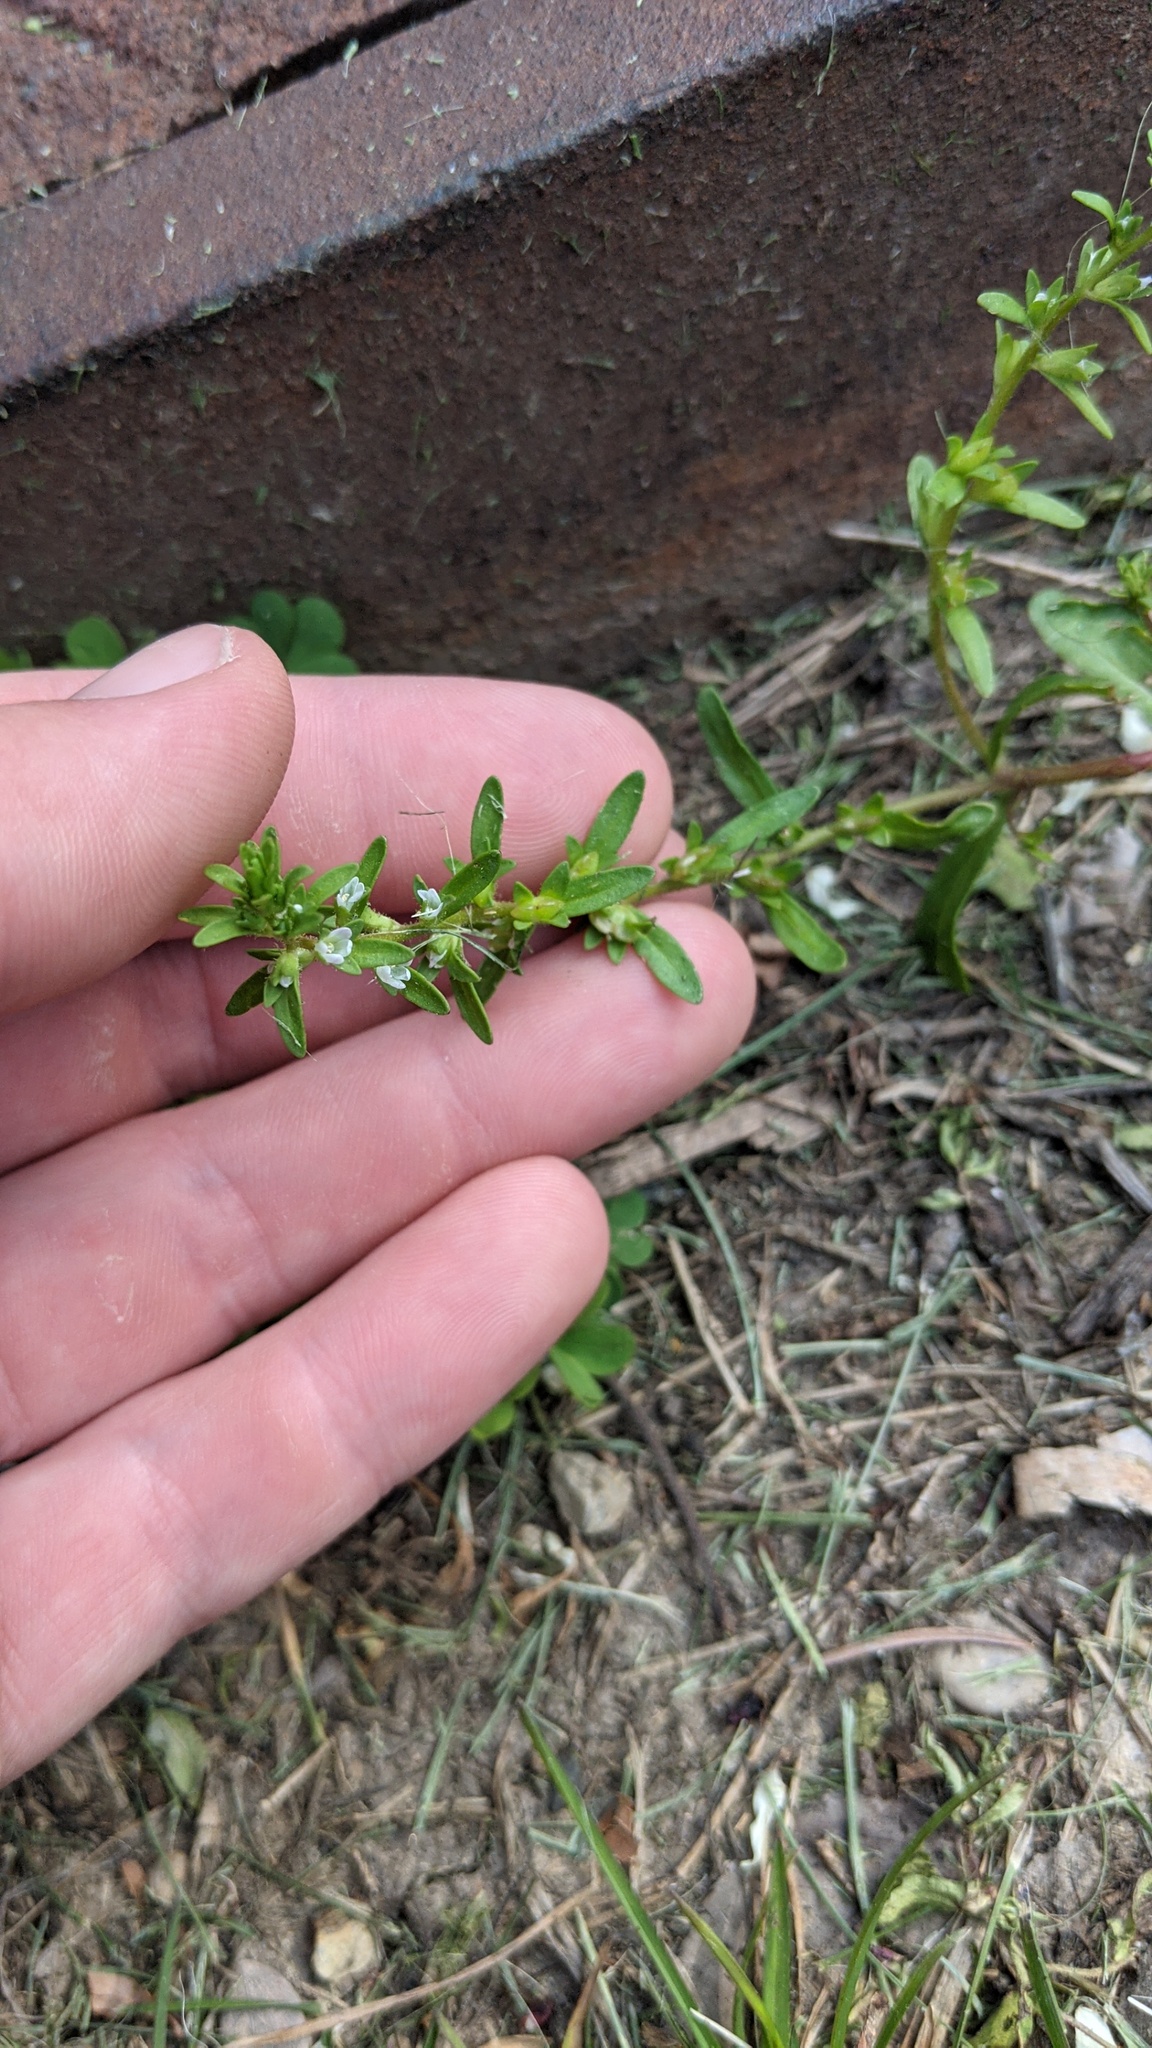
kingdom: Plantae
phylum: Tracheophyta
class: Magnoliopsida
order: Lamiales
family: Plantaginaceae
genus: Veronica
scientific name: Veronica peregrina
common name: Neckweed
